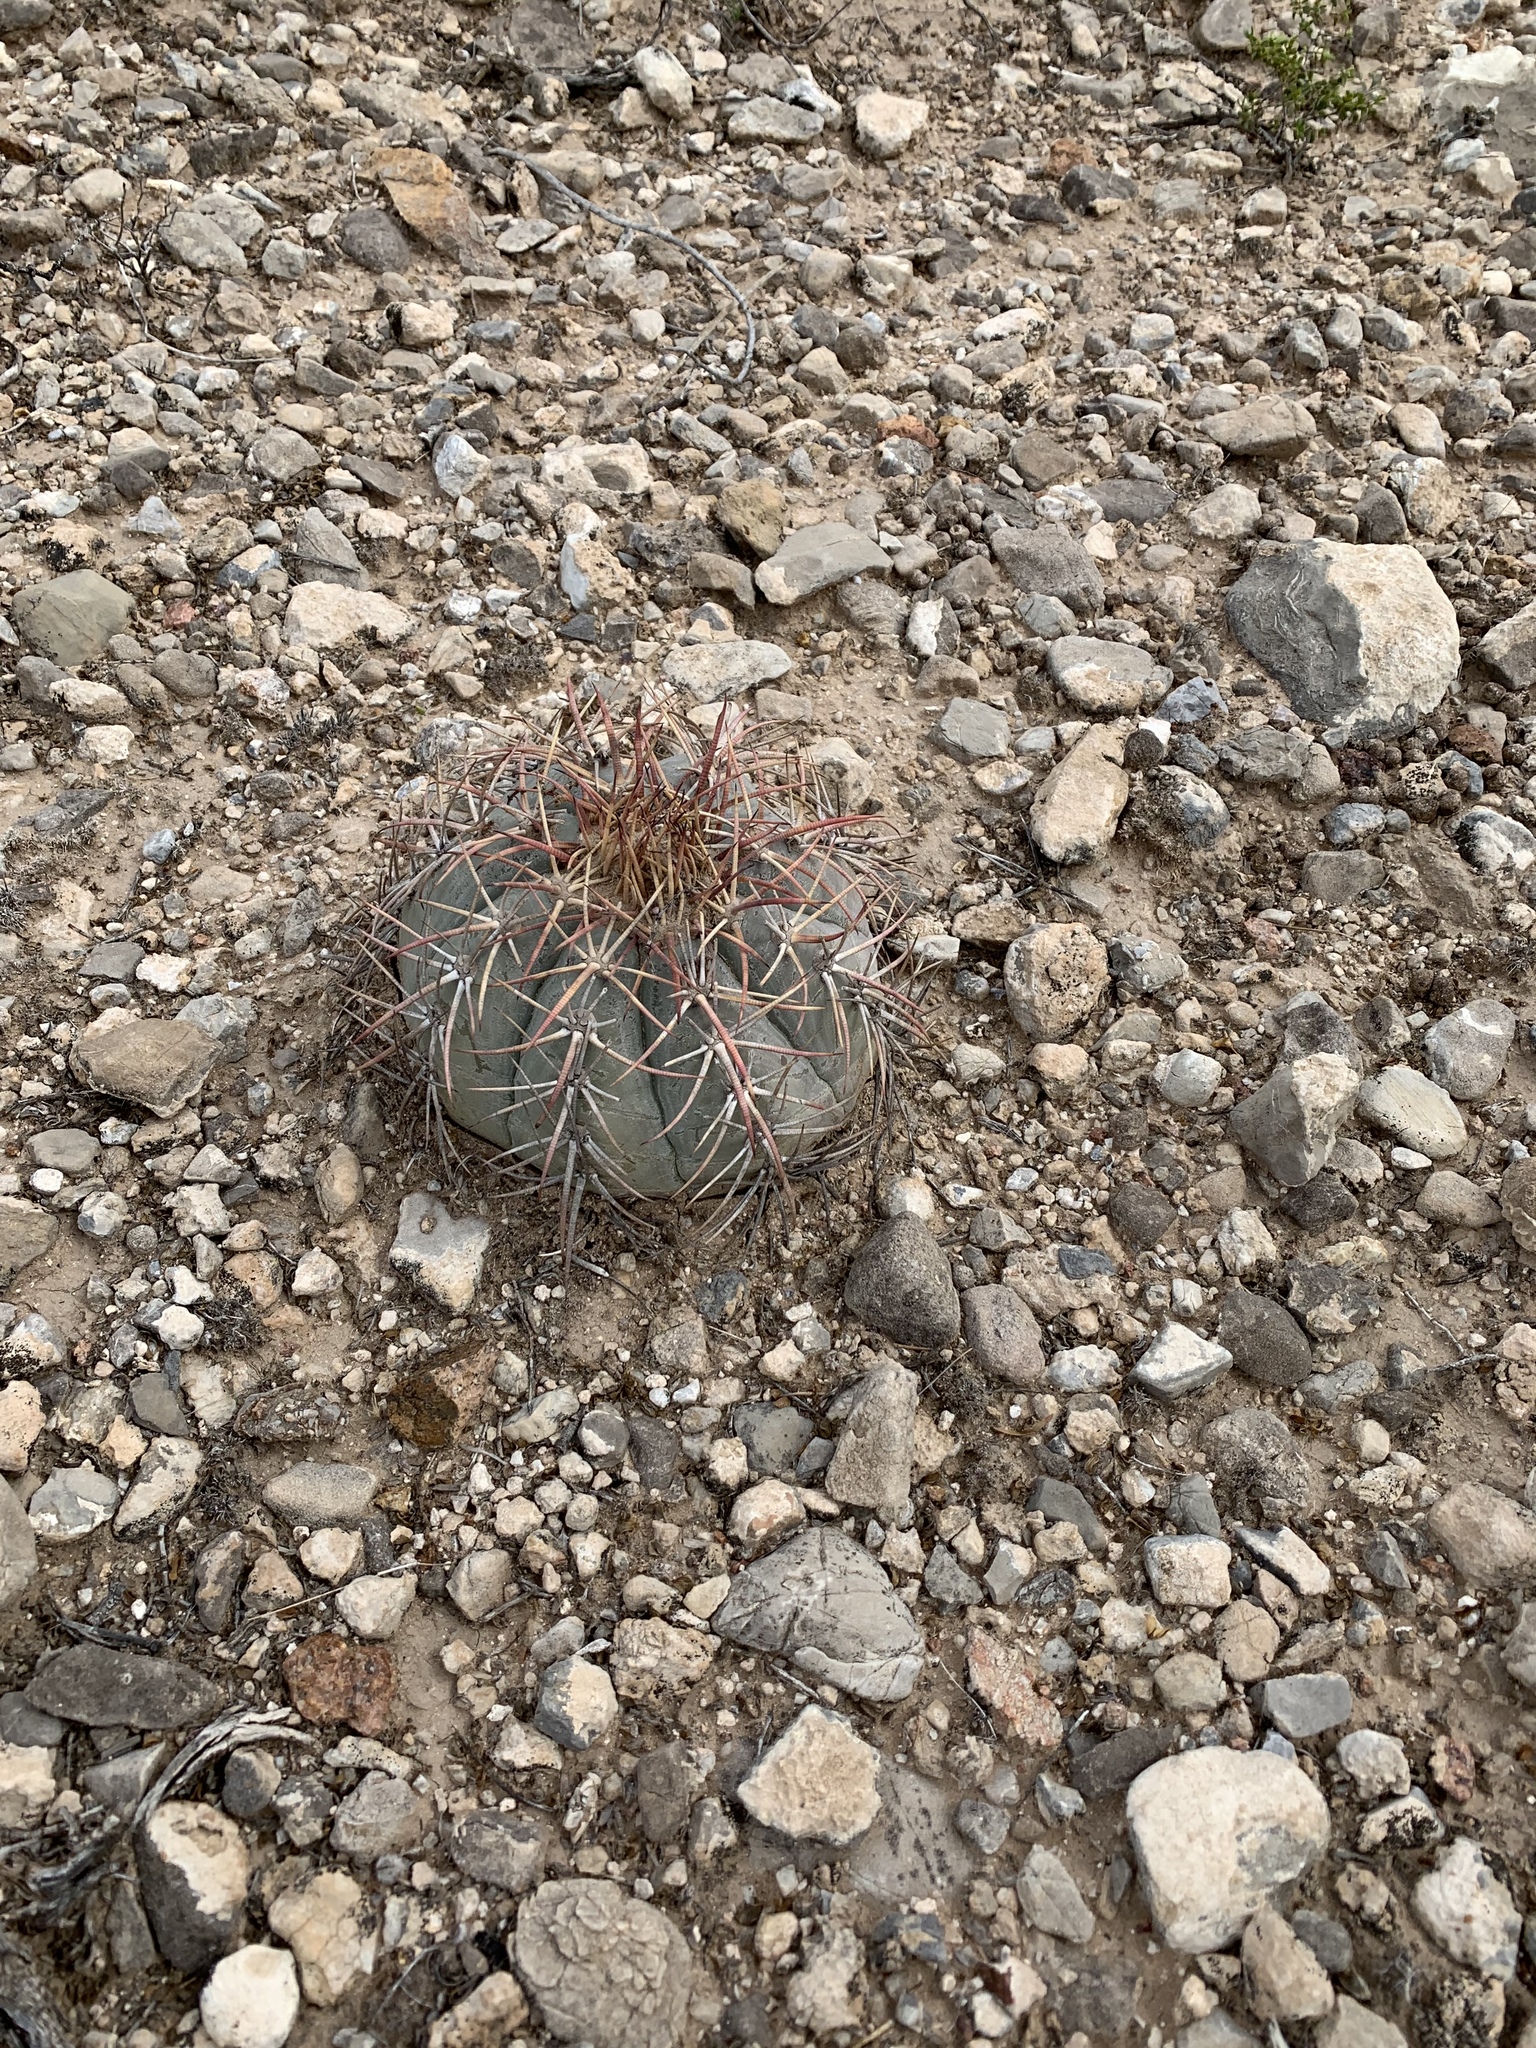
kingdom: Plantae
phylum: Tracheophyta
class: Magnoliopsida
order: Caryophyllales
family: Cactaceae
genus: Echinocactus
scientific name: Echinocactus horizonthalonius
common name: Devilshead
